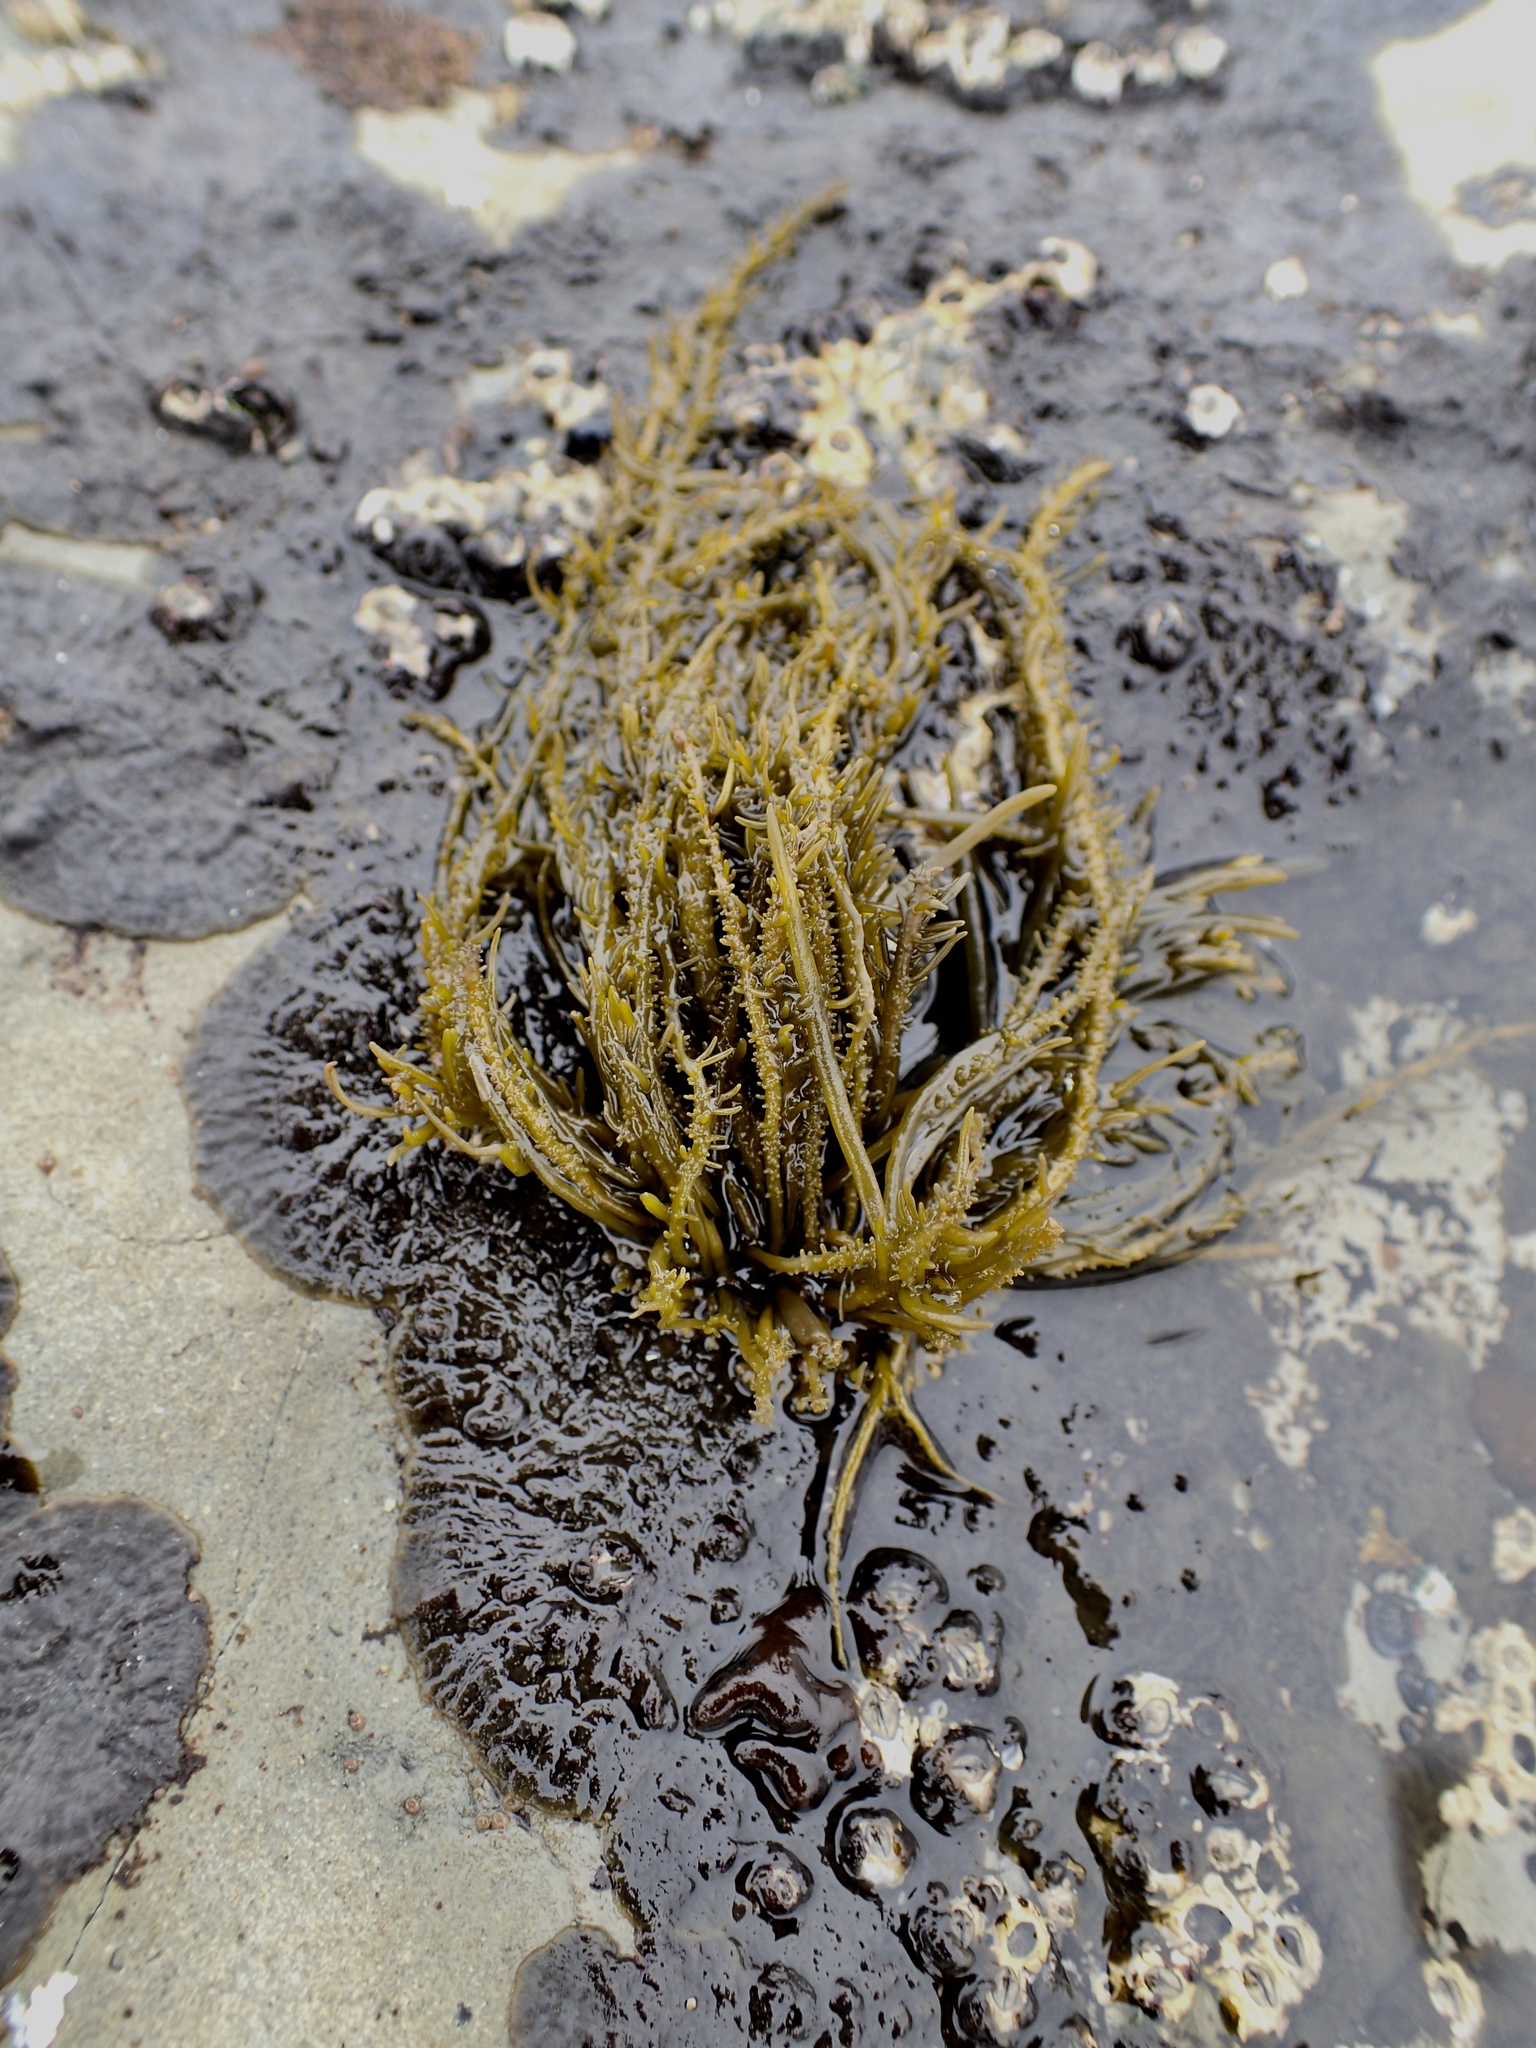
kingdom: Chromista
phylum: Ochrophyta
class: Phaeophyceae
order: Scytosiphonales
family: Scytosiphonaceae
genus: Analipus
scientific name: Analipus japonicus
